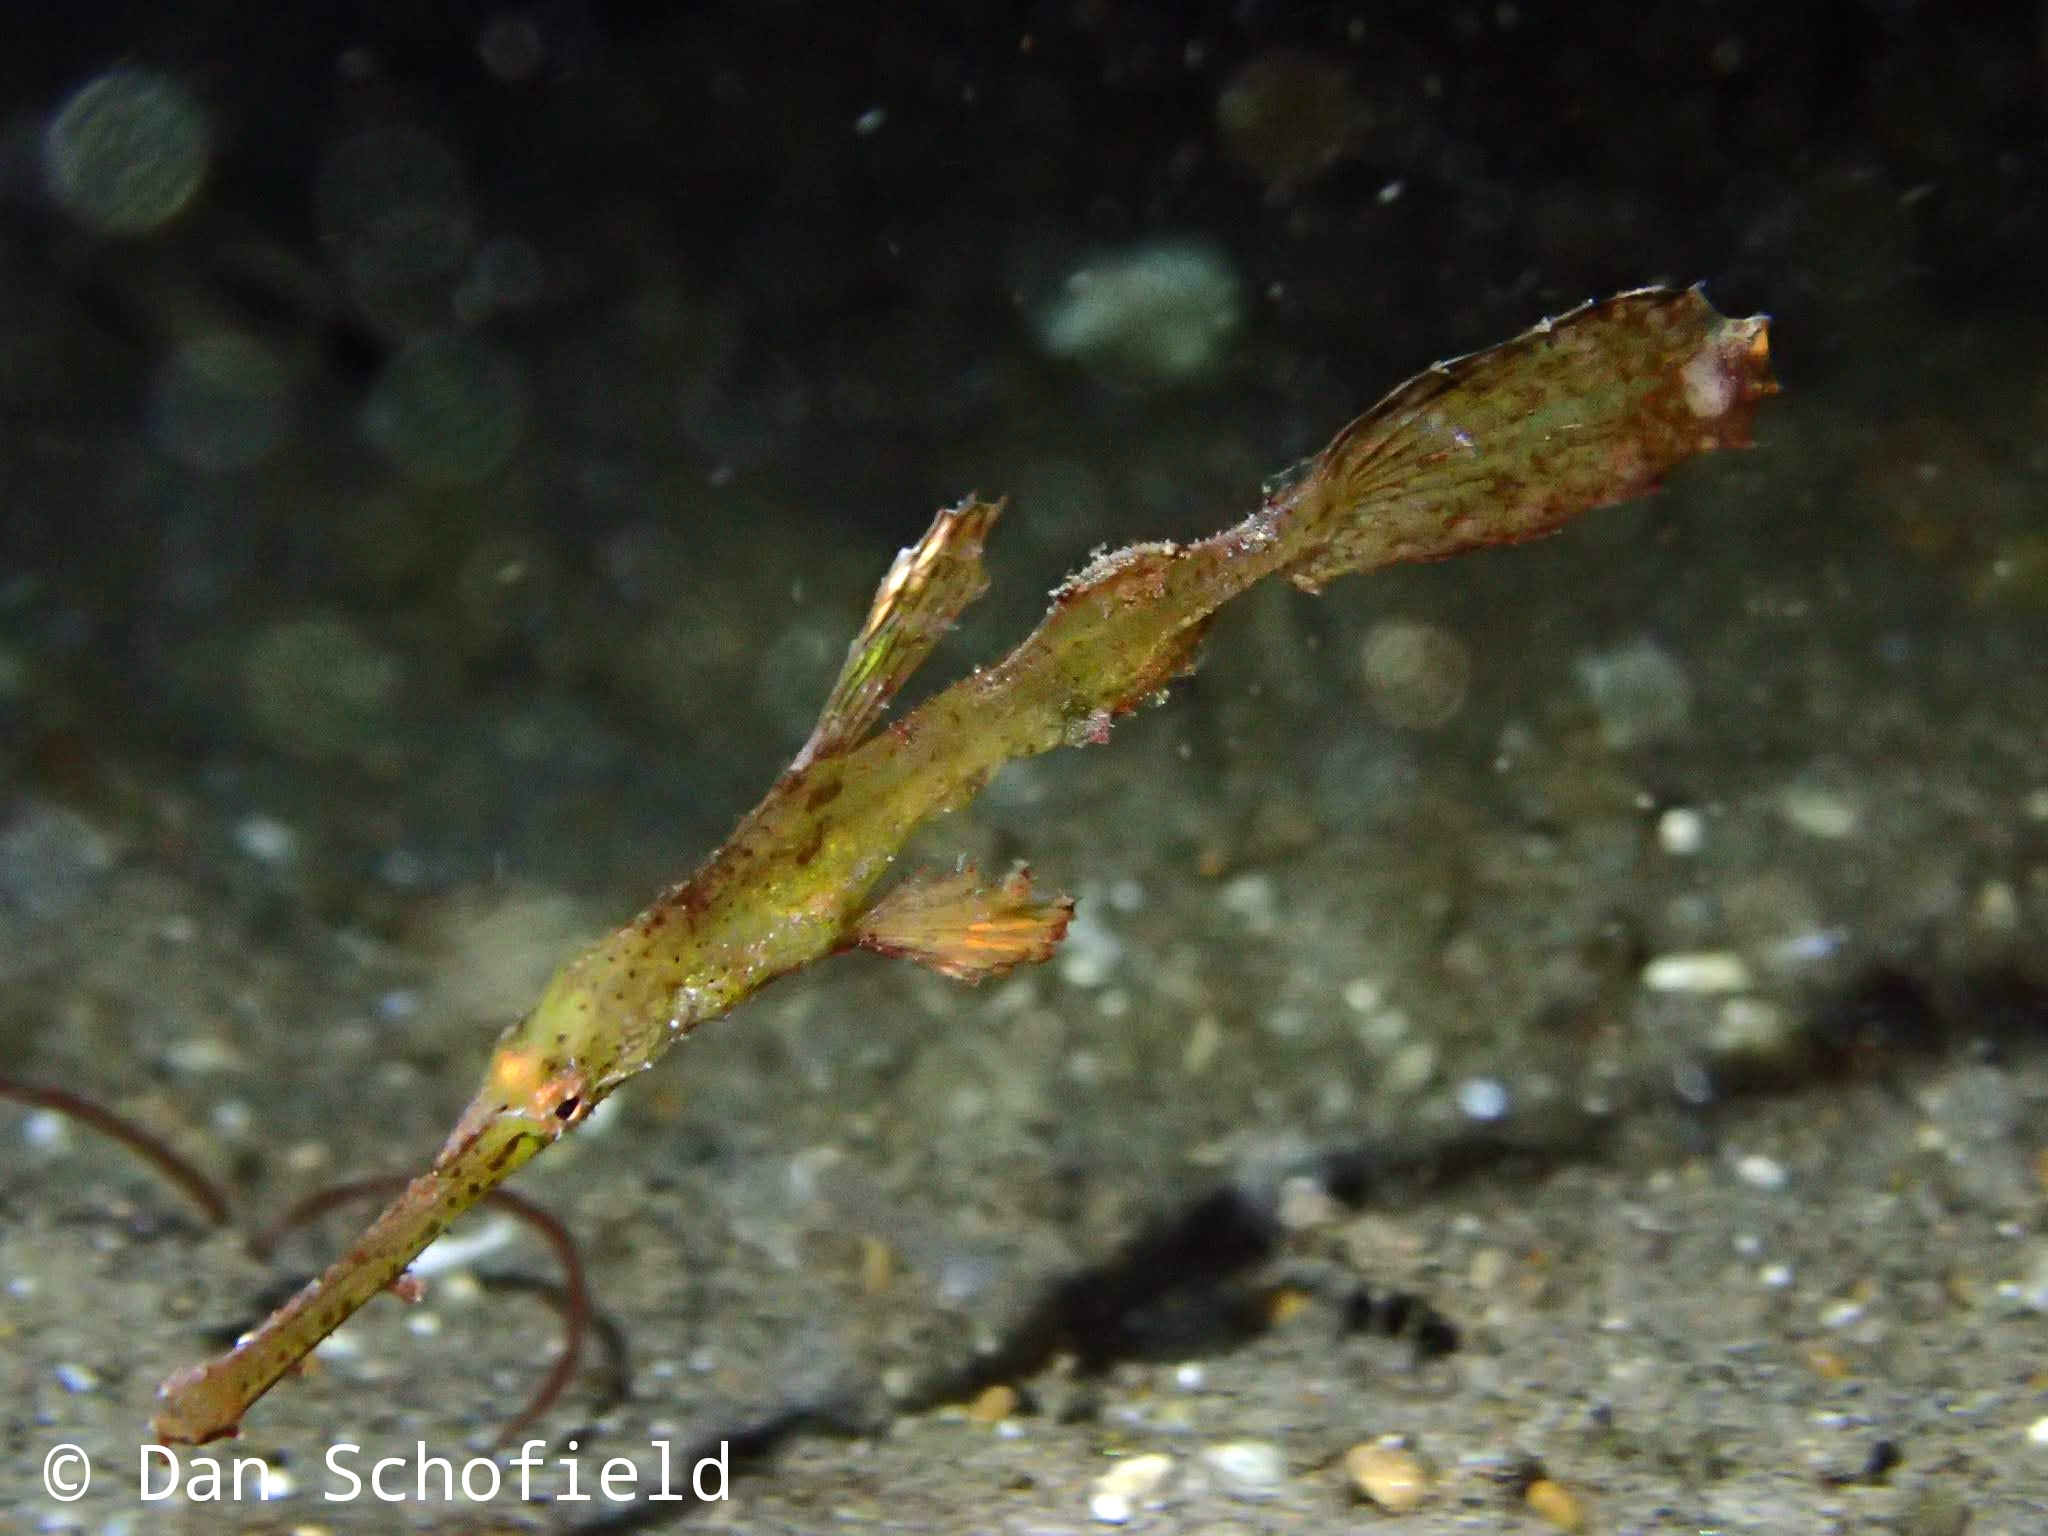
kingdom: Animalia
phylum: Chordata
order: Syngnathiformes
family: Solenostomidae
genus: Solenostomus
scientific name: Solenostomus cyanopterus
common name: Blue-finned ghost pipefish
